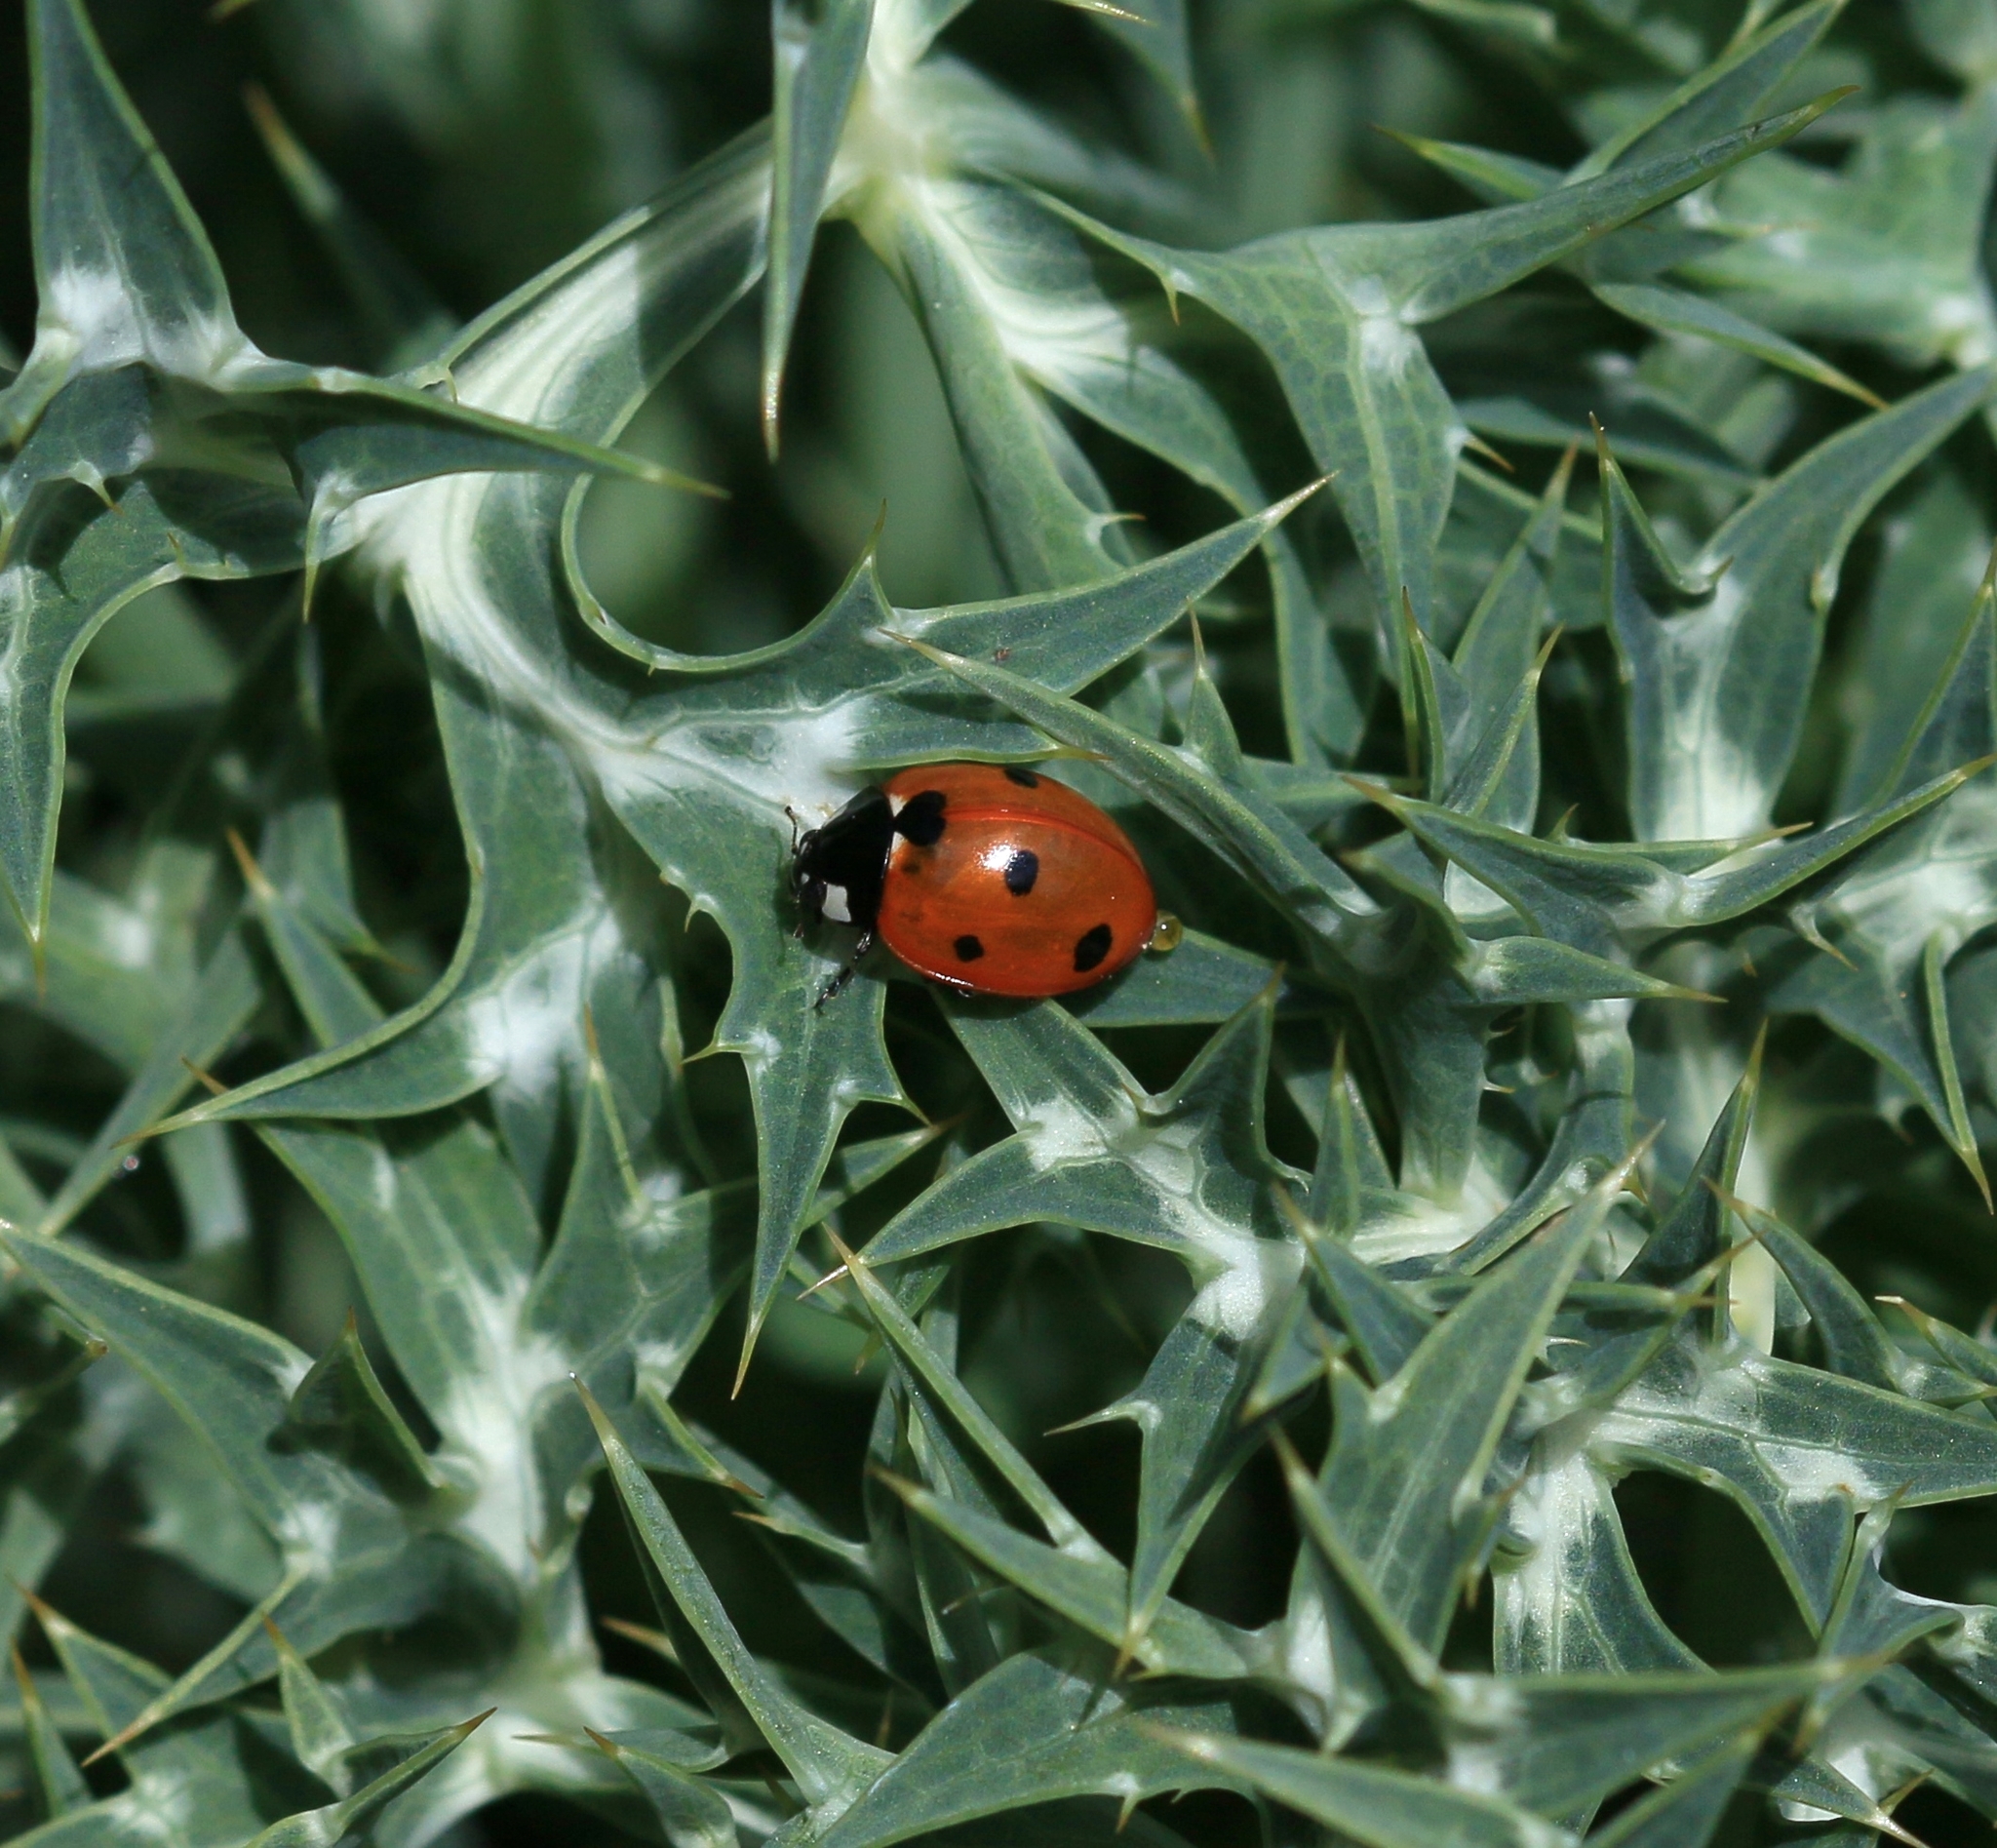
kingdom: Animalia
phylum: Arthropoda
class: Insecta
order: Coleoptera
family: Coccinellidae
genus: Coccinella
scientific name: Coccinella septempunctata
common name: Sevenspotted lady beetle
